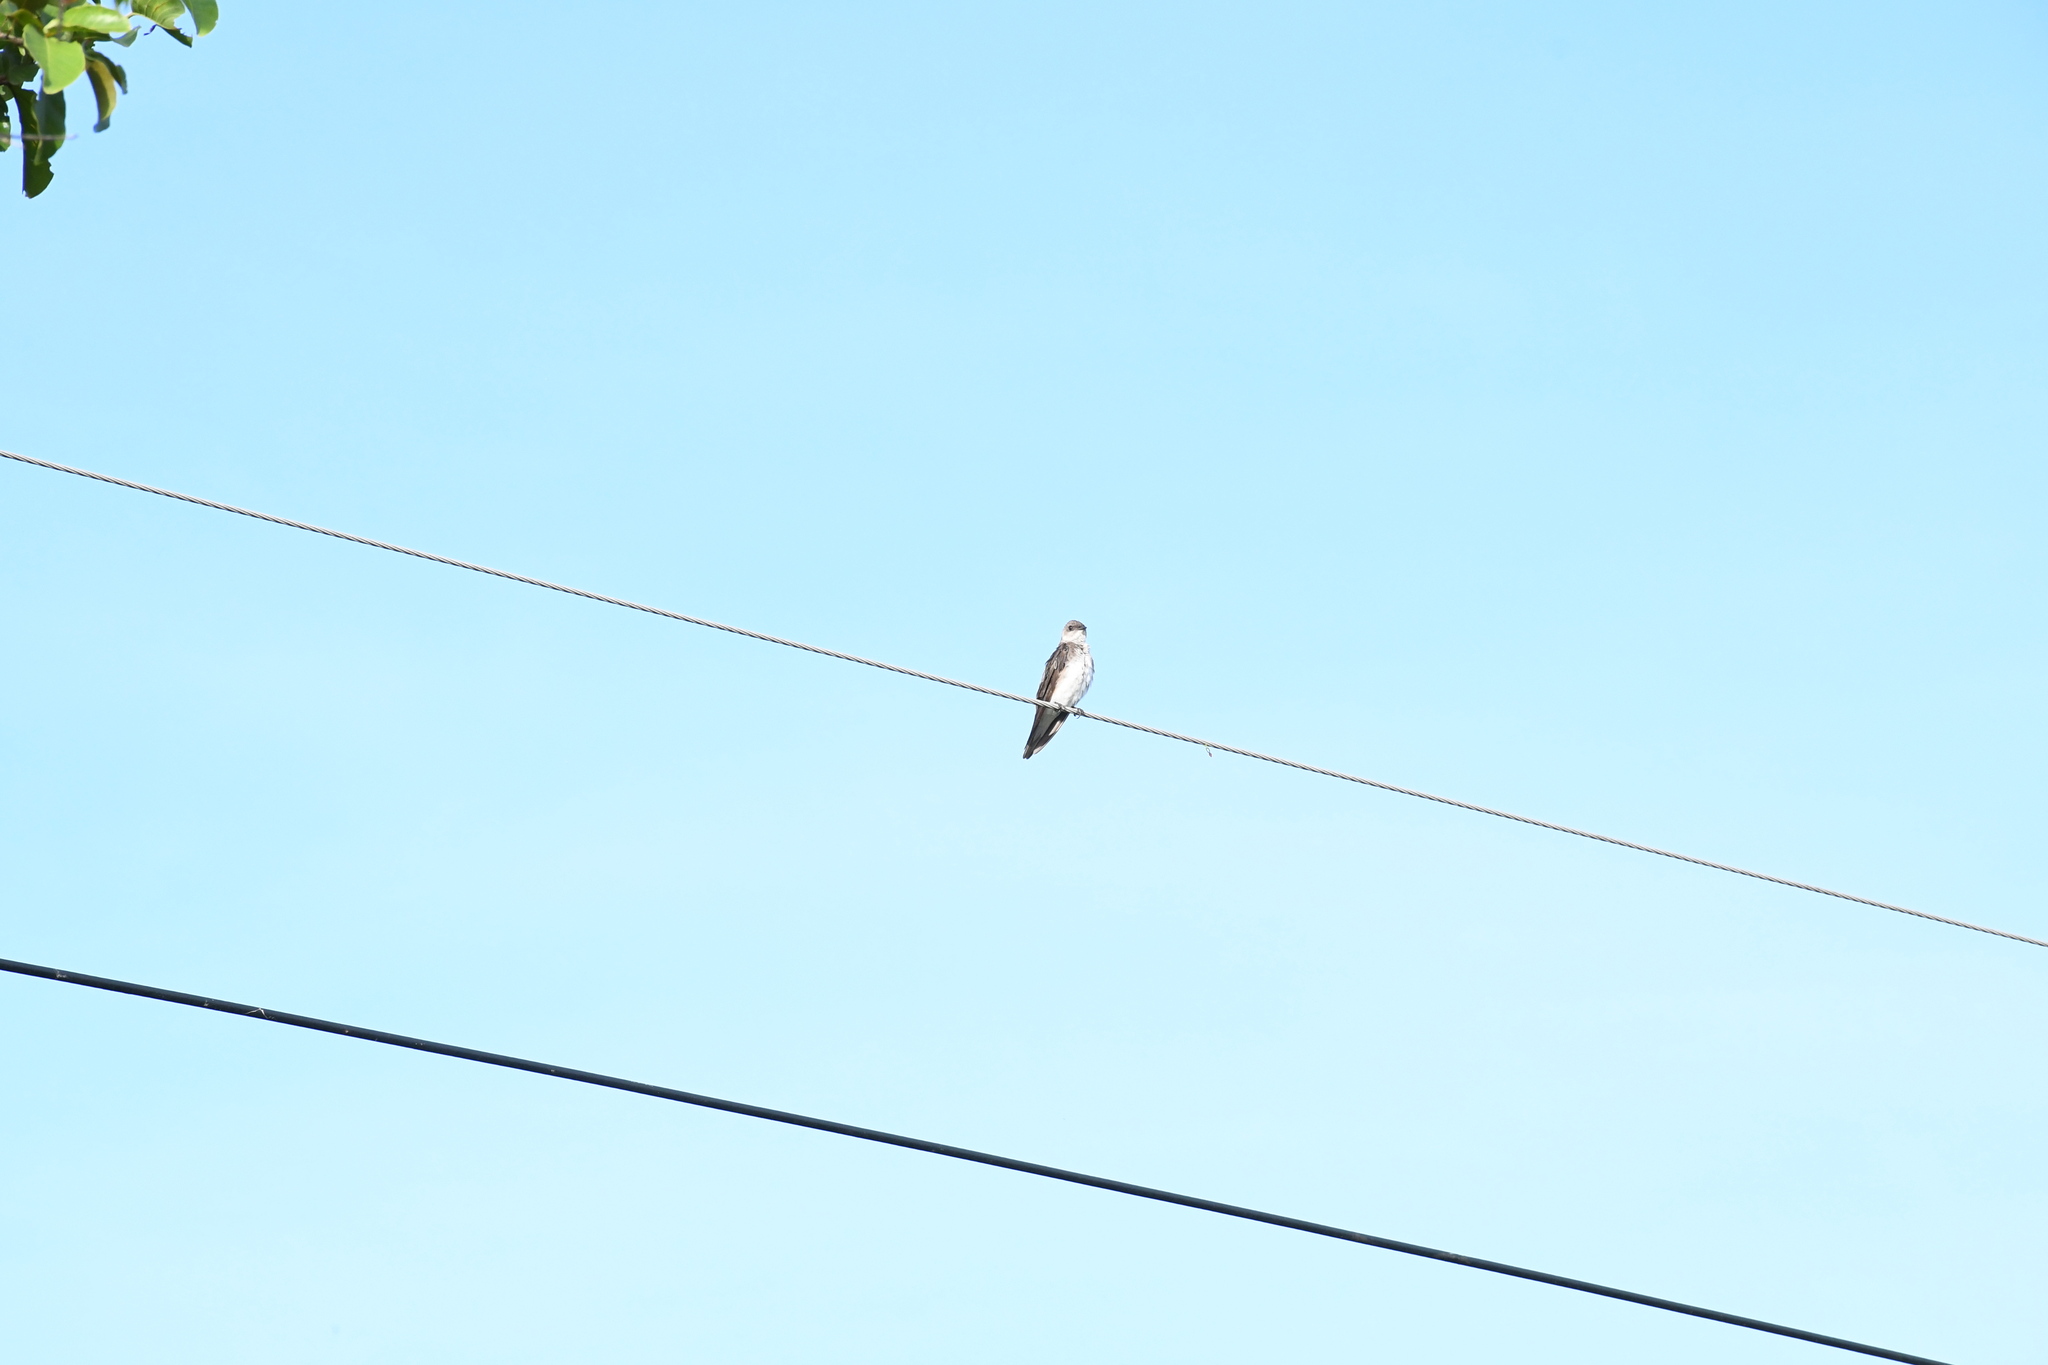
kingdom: Animalia
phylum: Chordata
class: Aves
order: Passeriformes
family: Hirundinidae
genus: Progne
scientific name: Progne tapera
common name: Brown-chested martin
